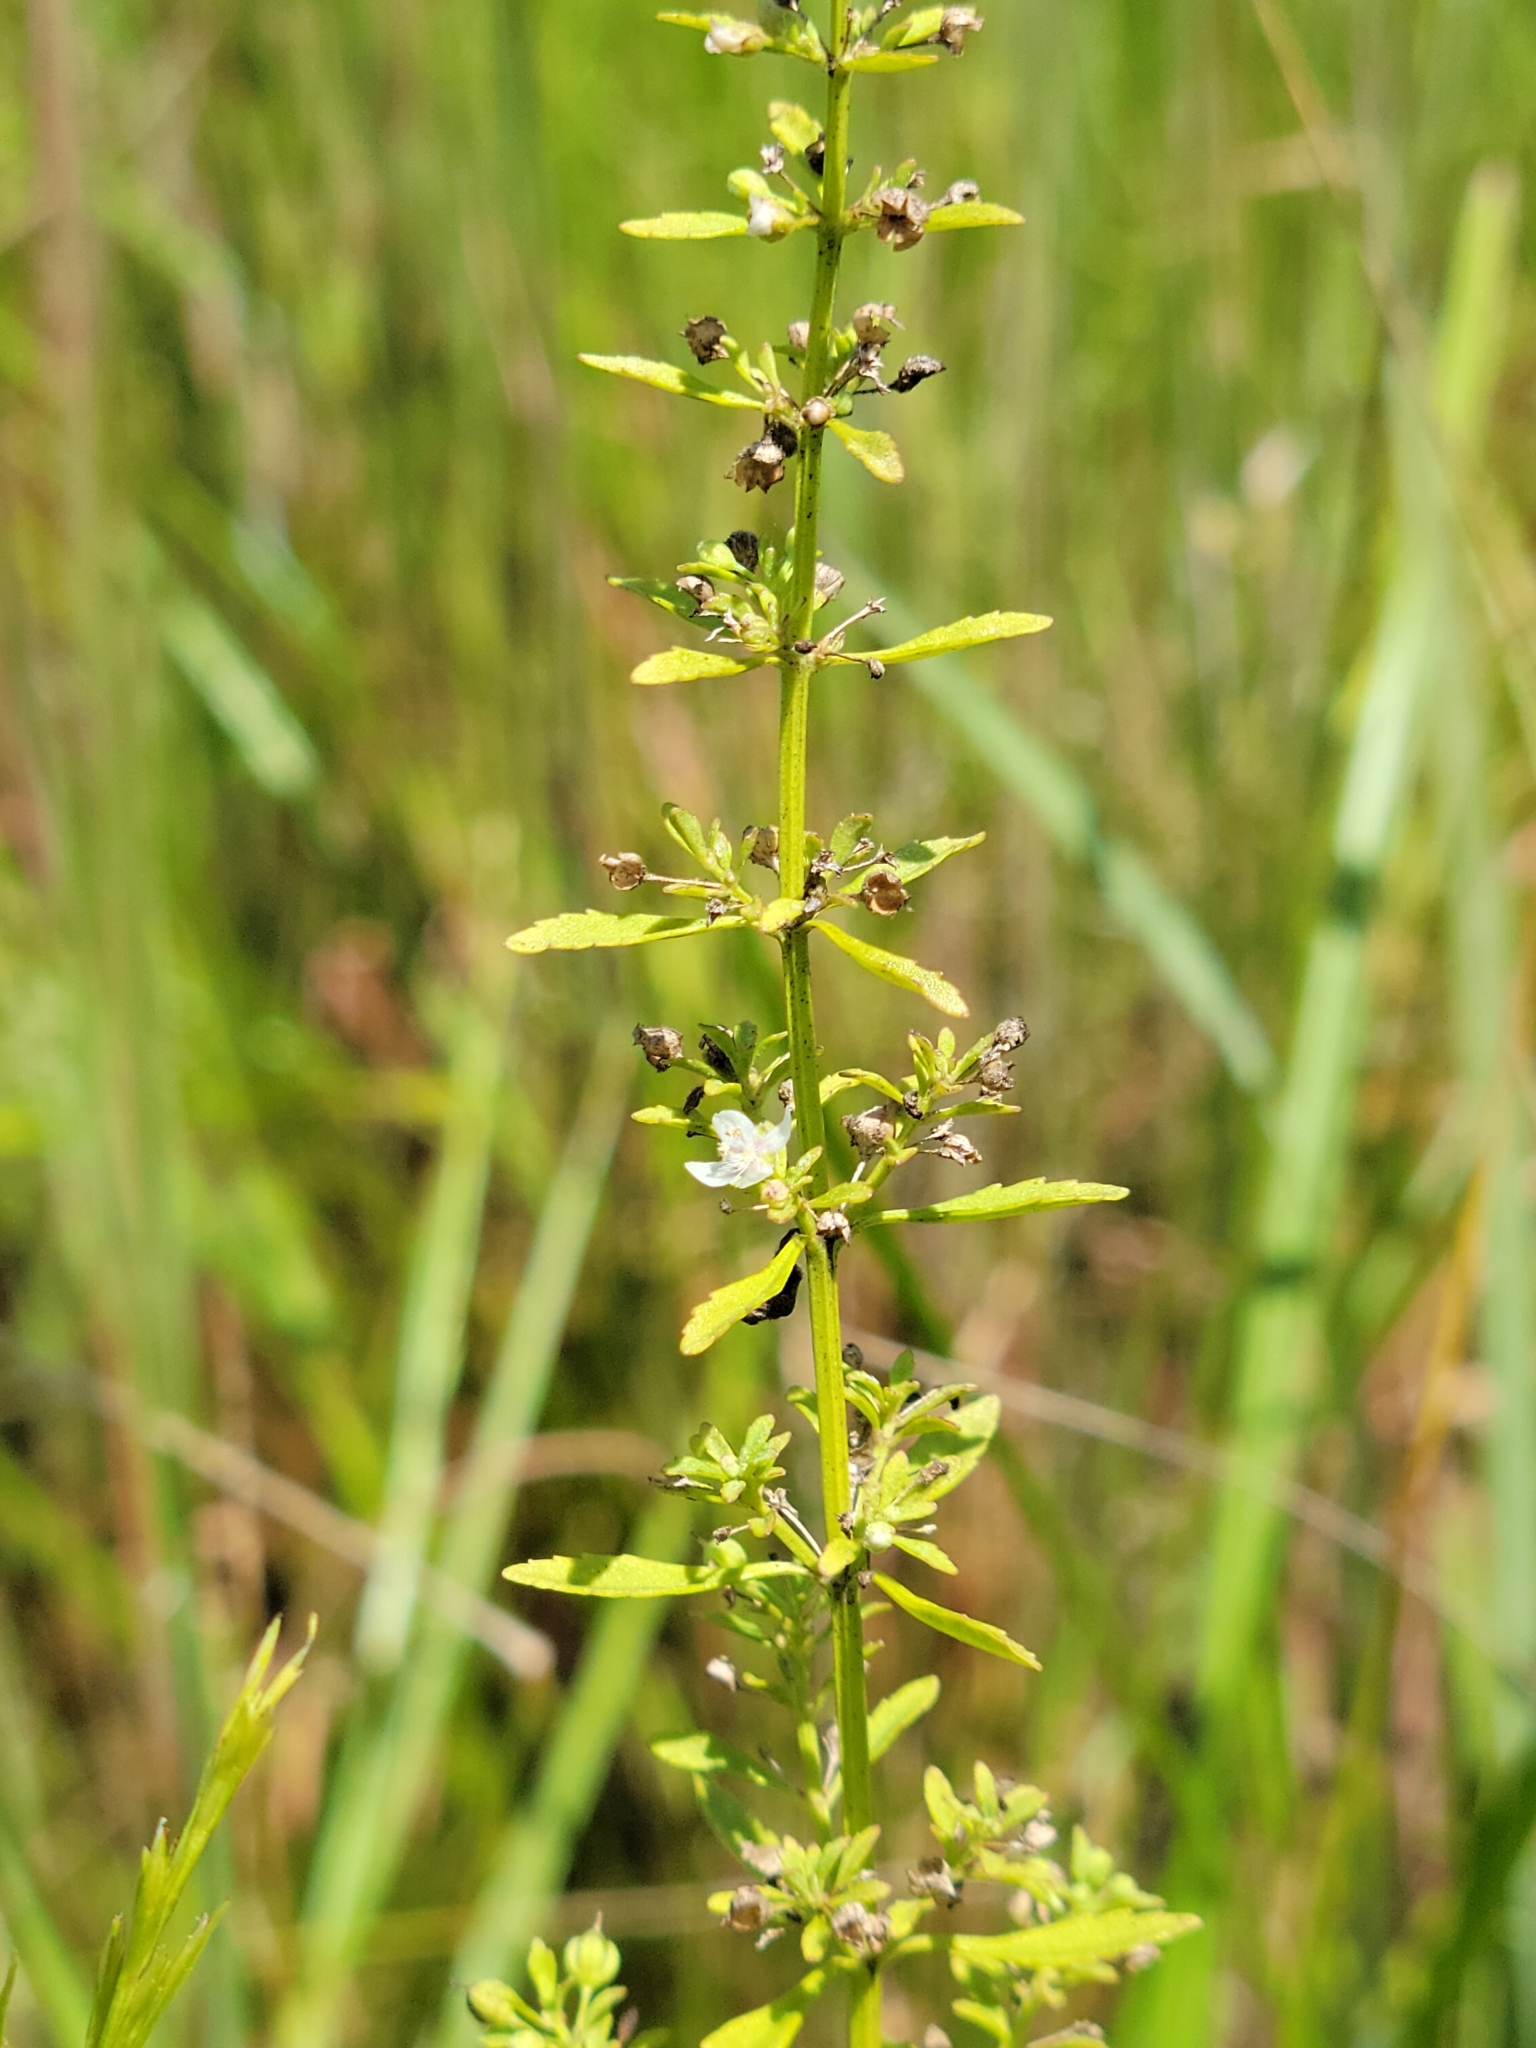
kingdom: Plantae
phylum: Tracheophyta
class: Magnoliopsida
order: Lamiales
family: Plantaginaceae
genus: Scoparia
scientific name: Scoparia dulcis
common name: Scoparia-weed
